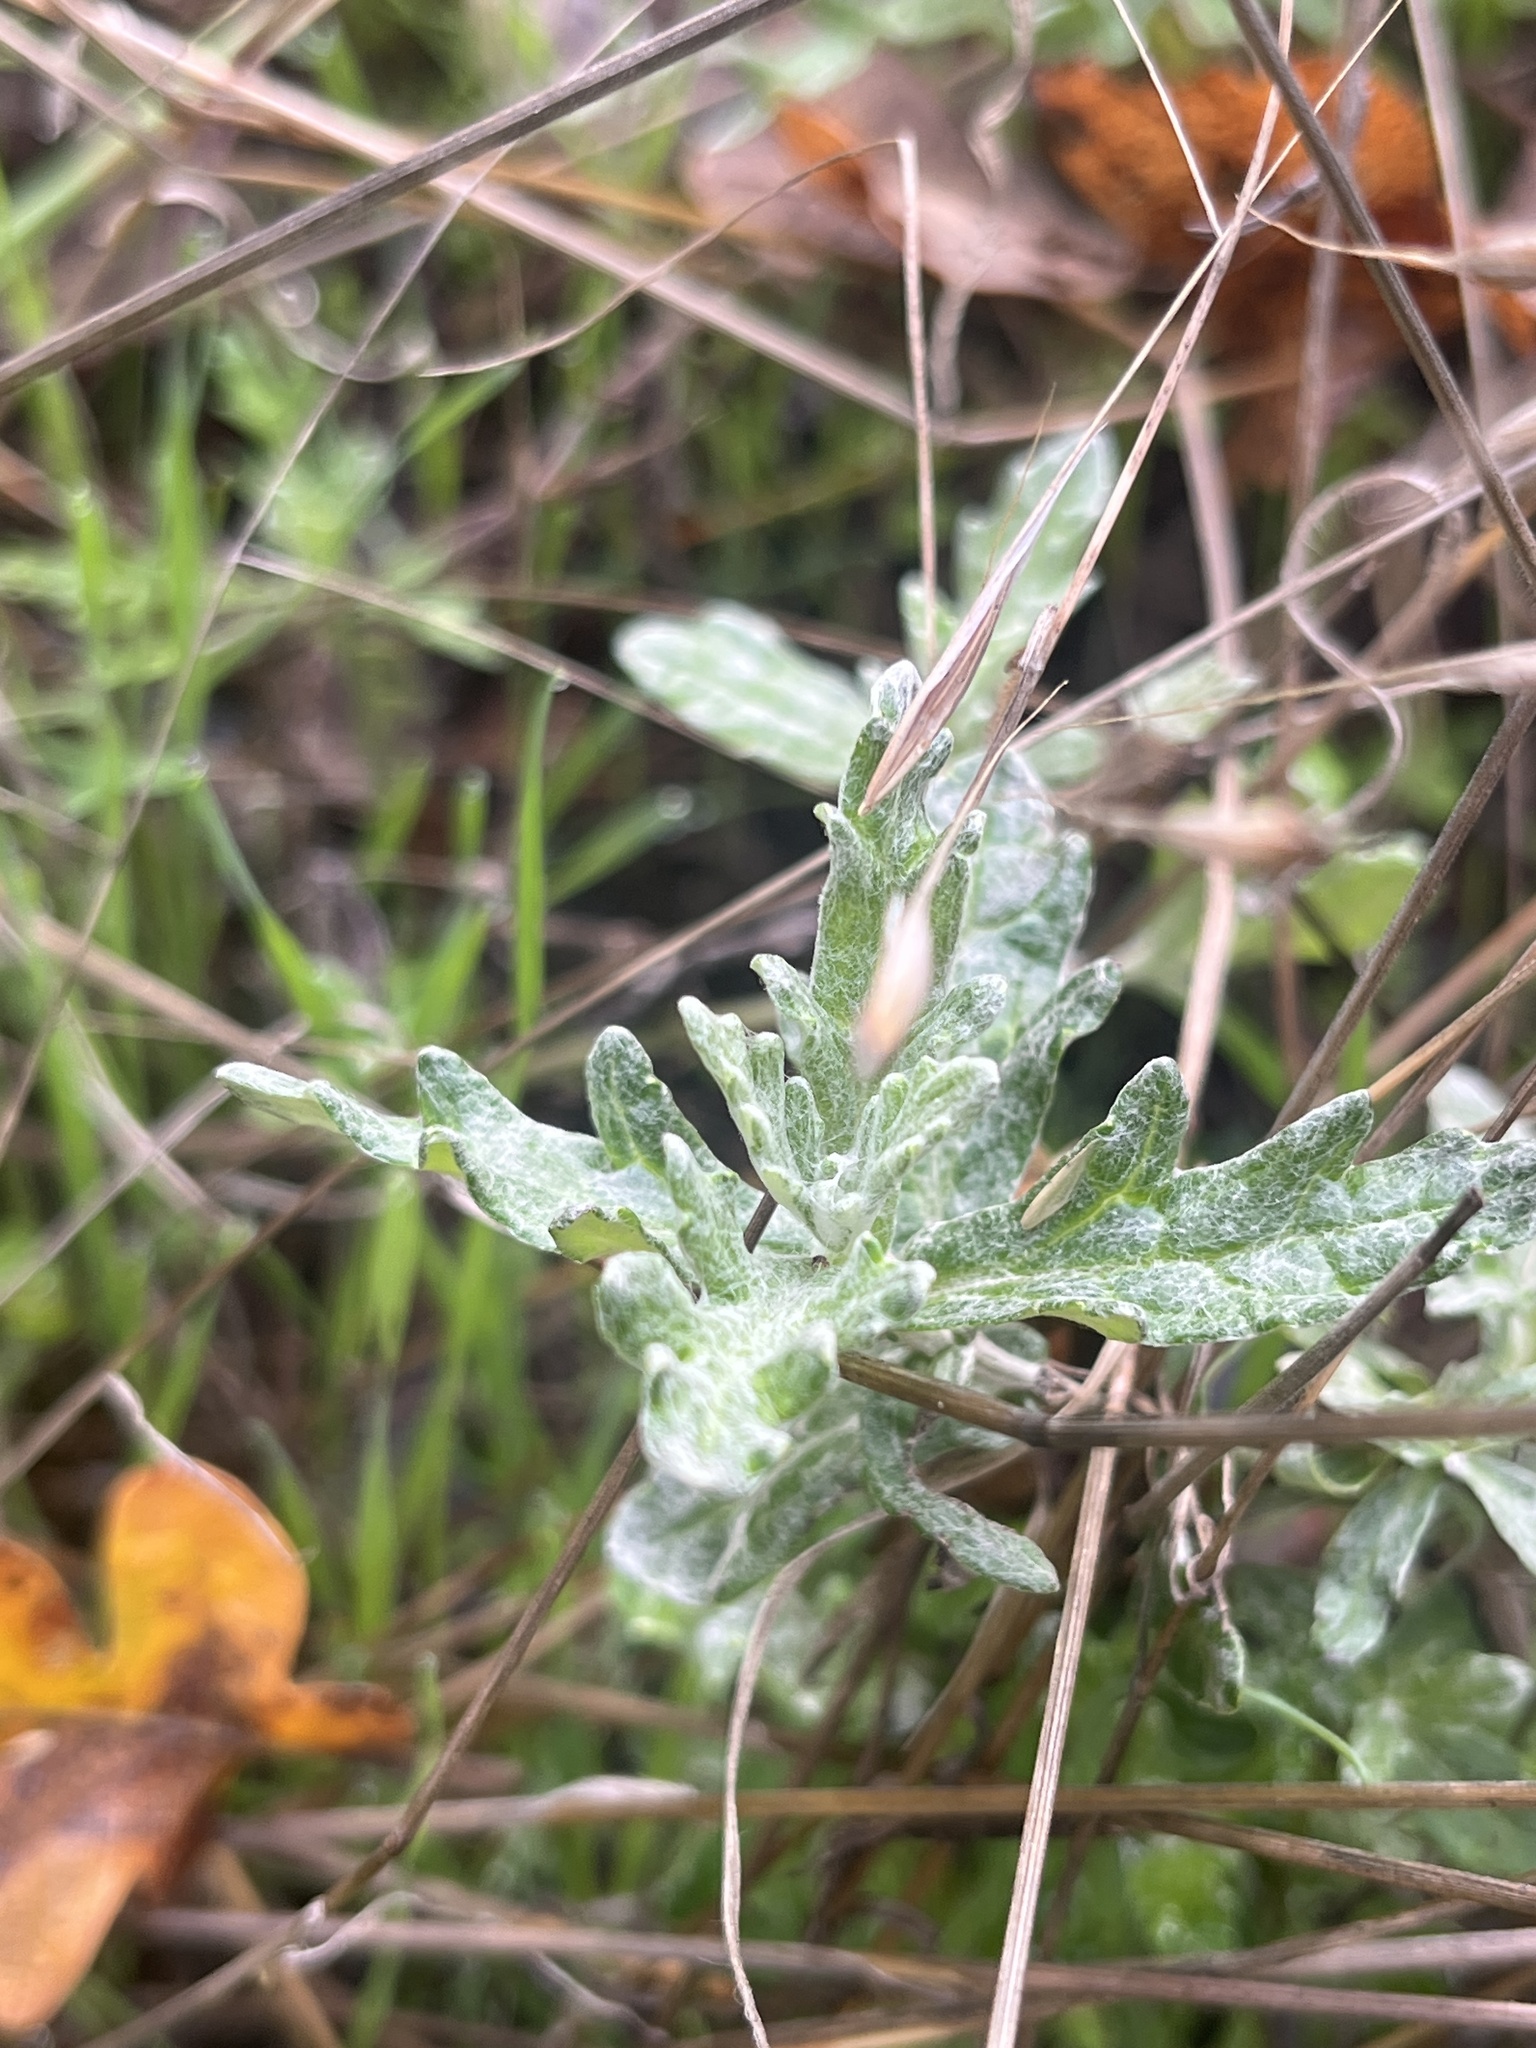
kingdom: Plantae
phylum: Tracheophyta
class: Magnoliopsida
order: Asterales
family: Asteraceae
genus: Eriophyllum
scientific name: Eriophyllum lanatum
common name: Common woolly-sunflower
